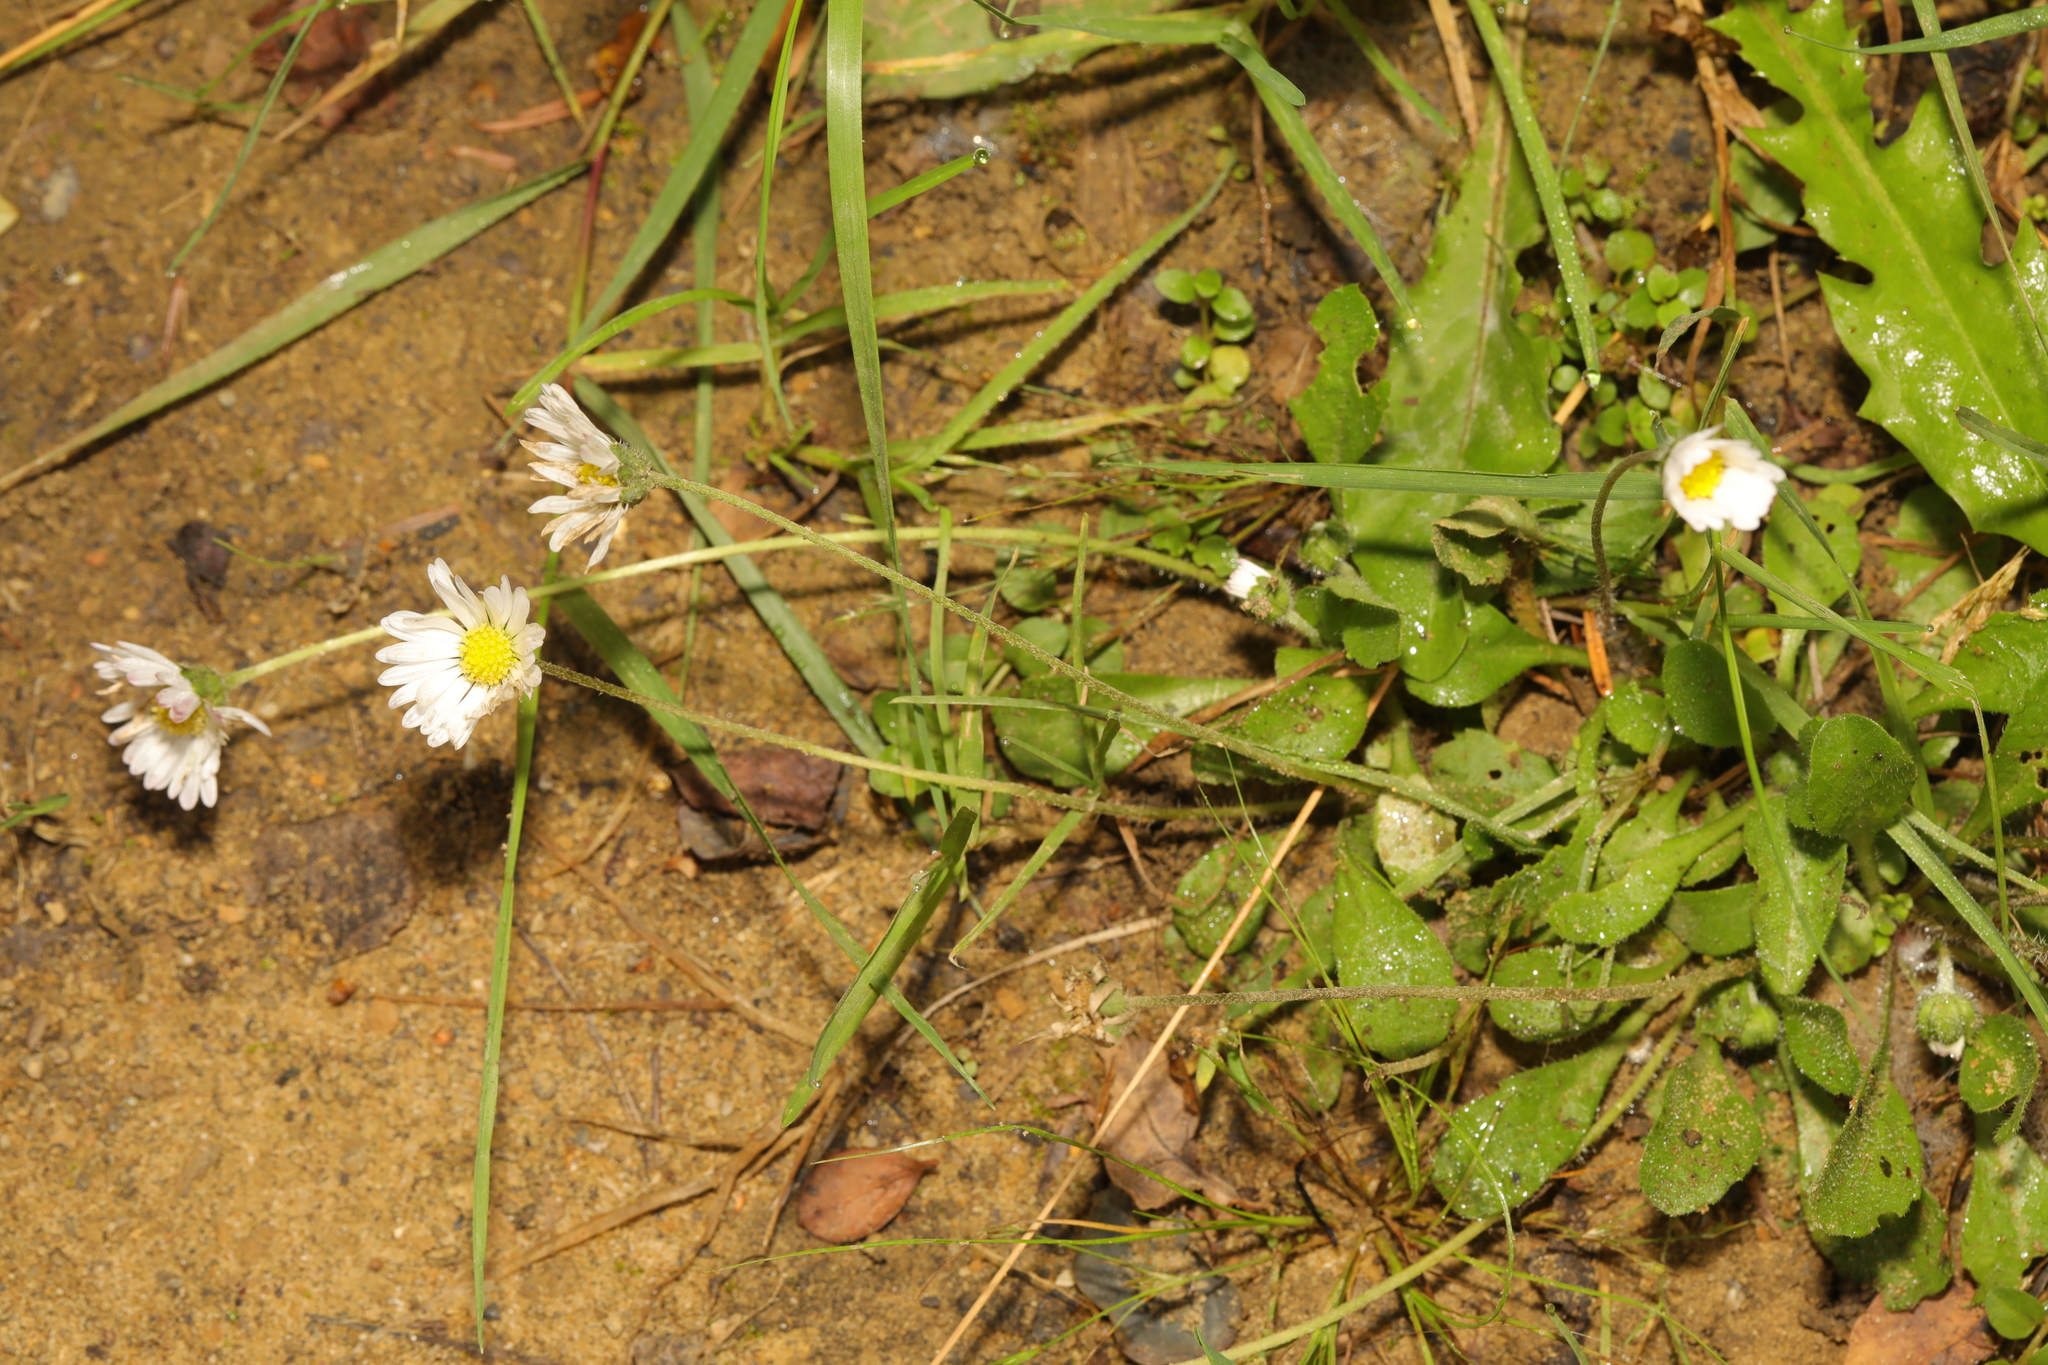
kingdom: Plantae
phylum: Tracheophyta
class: Magnoliopsida
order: Asterales
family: Asteraceae
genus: Bellis
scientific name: Bellis perennis
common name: Lawndaisy
